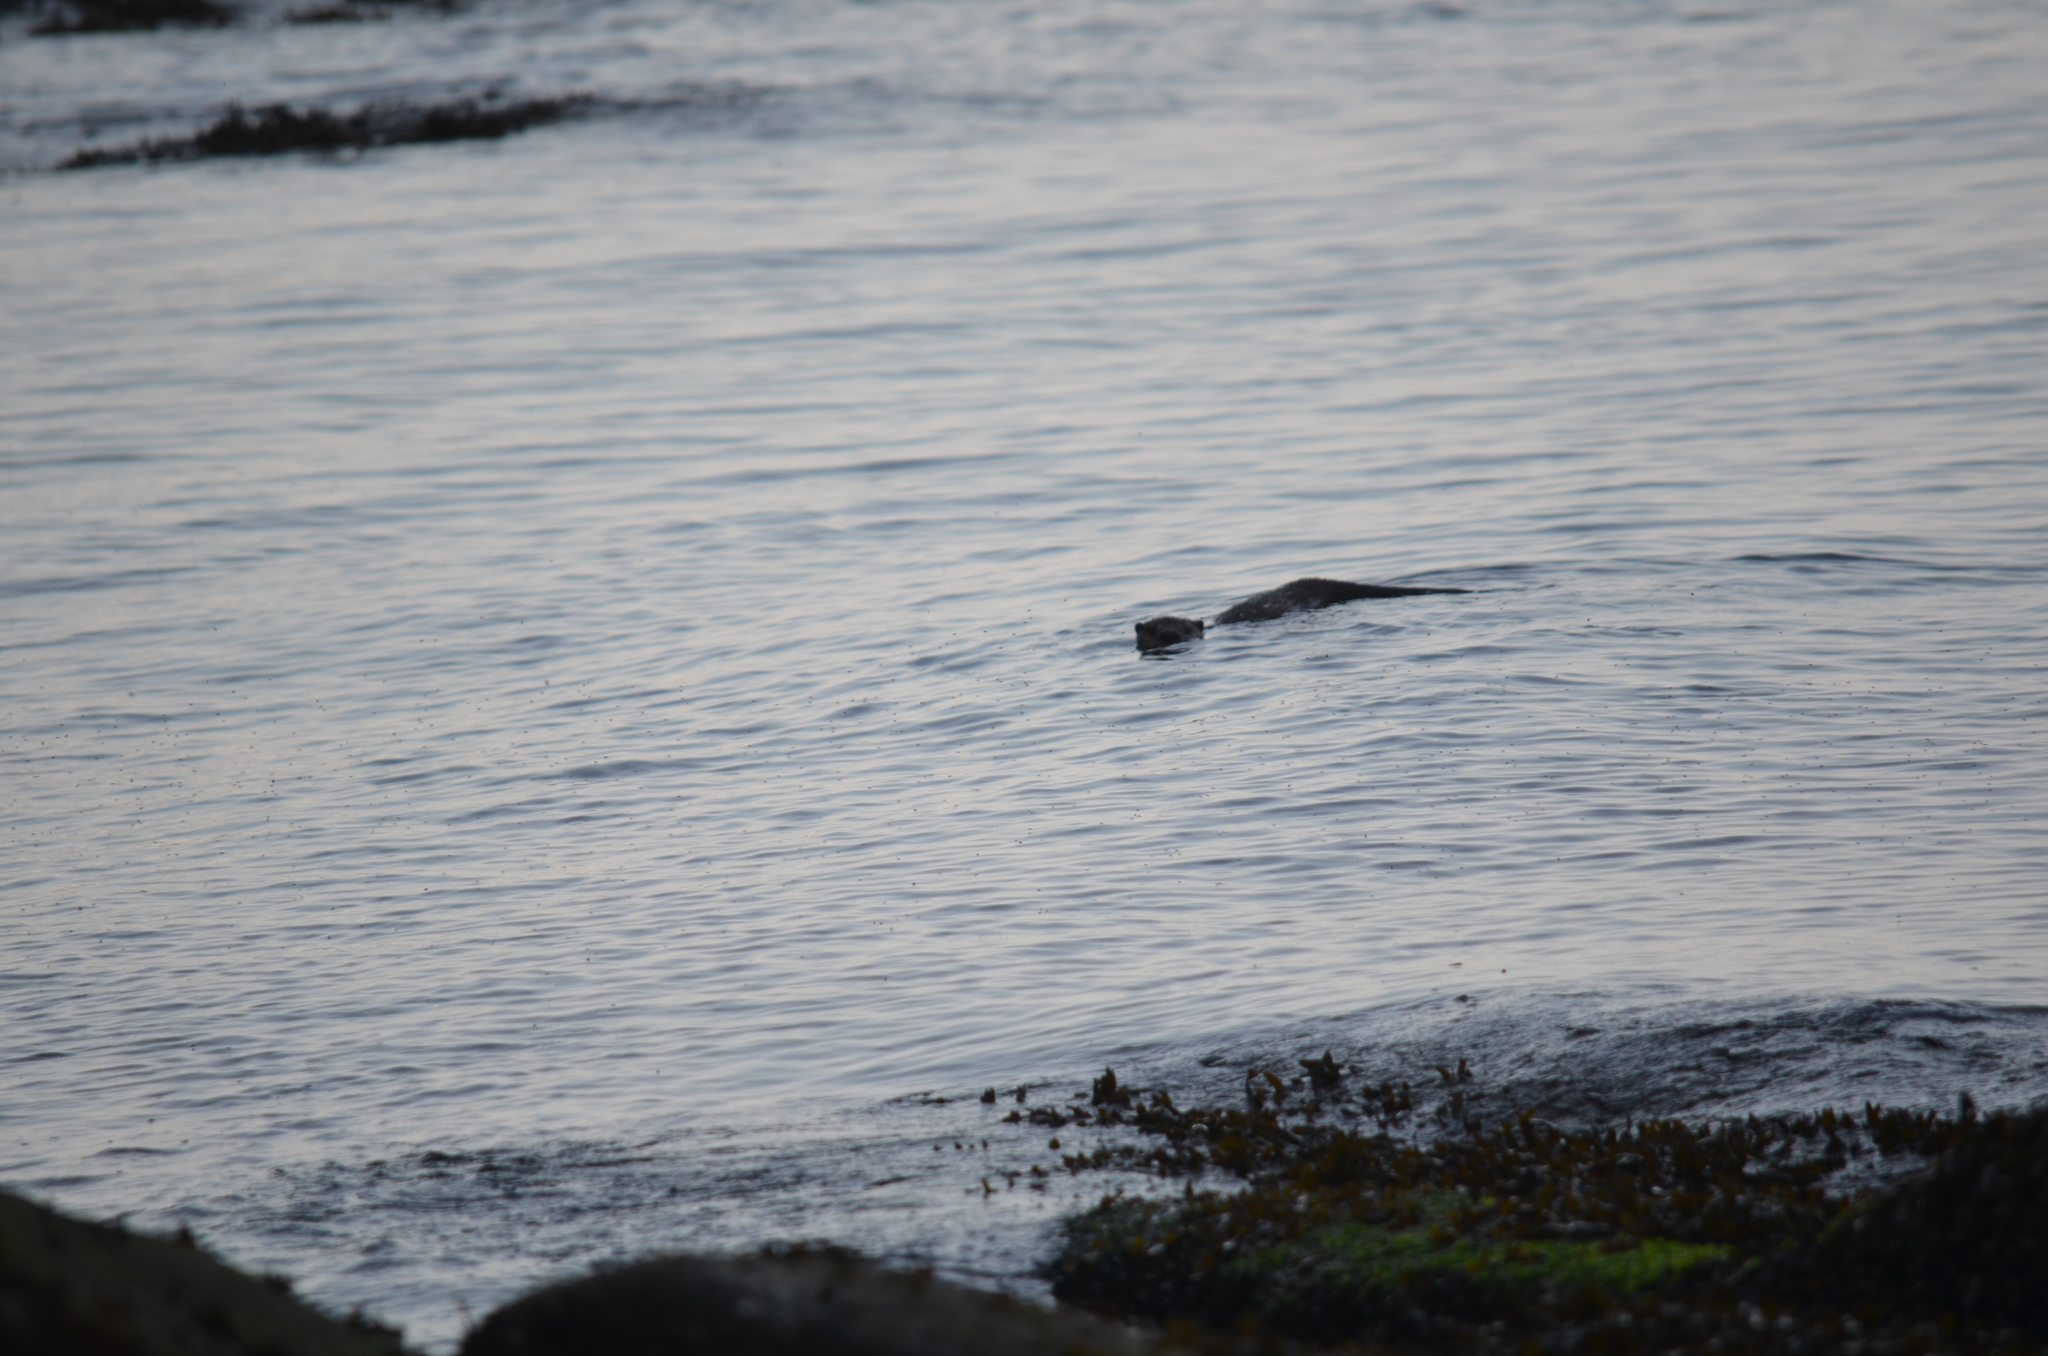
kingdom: Animalia
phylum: Chordata
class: Mammalia
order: Carnivora
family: Mustelidae
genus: Lontra
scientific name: Lontra canadensis
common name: North american river otter
